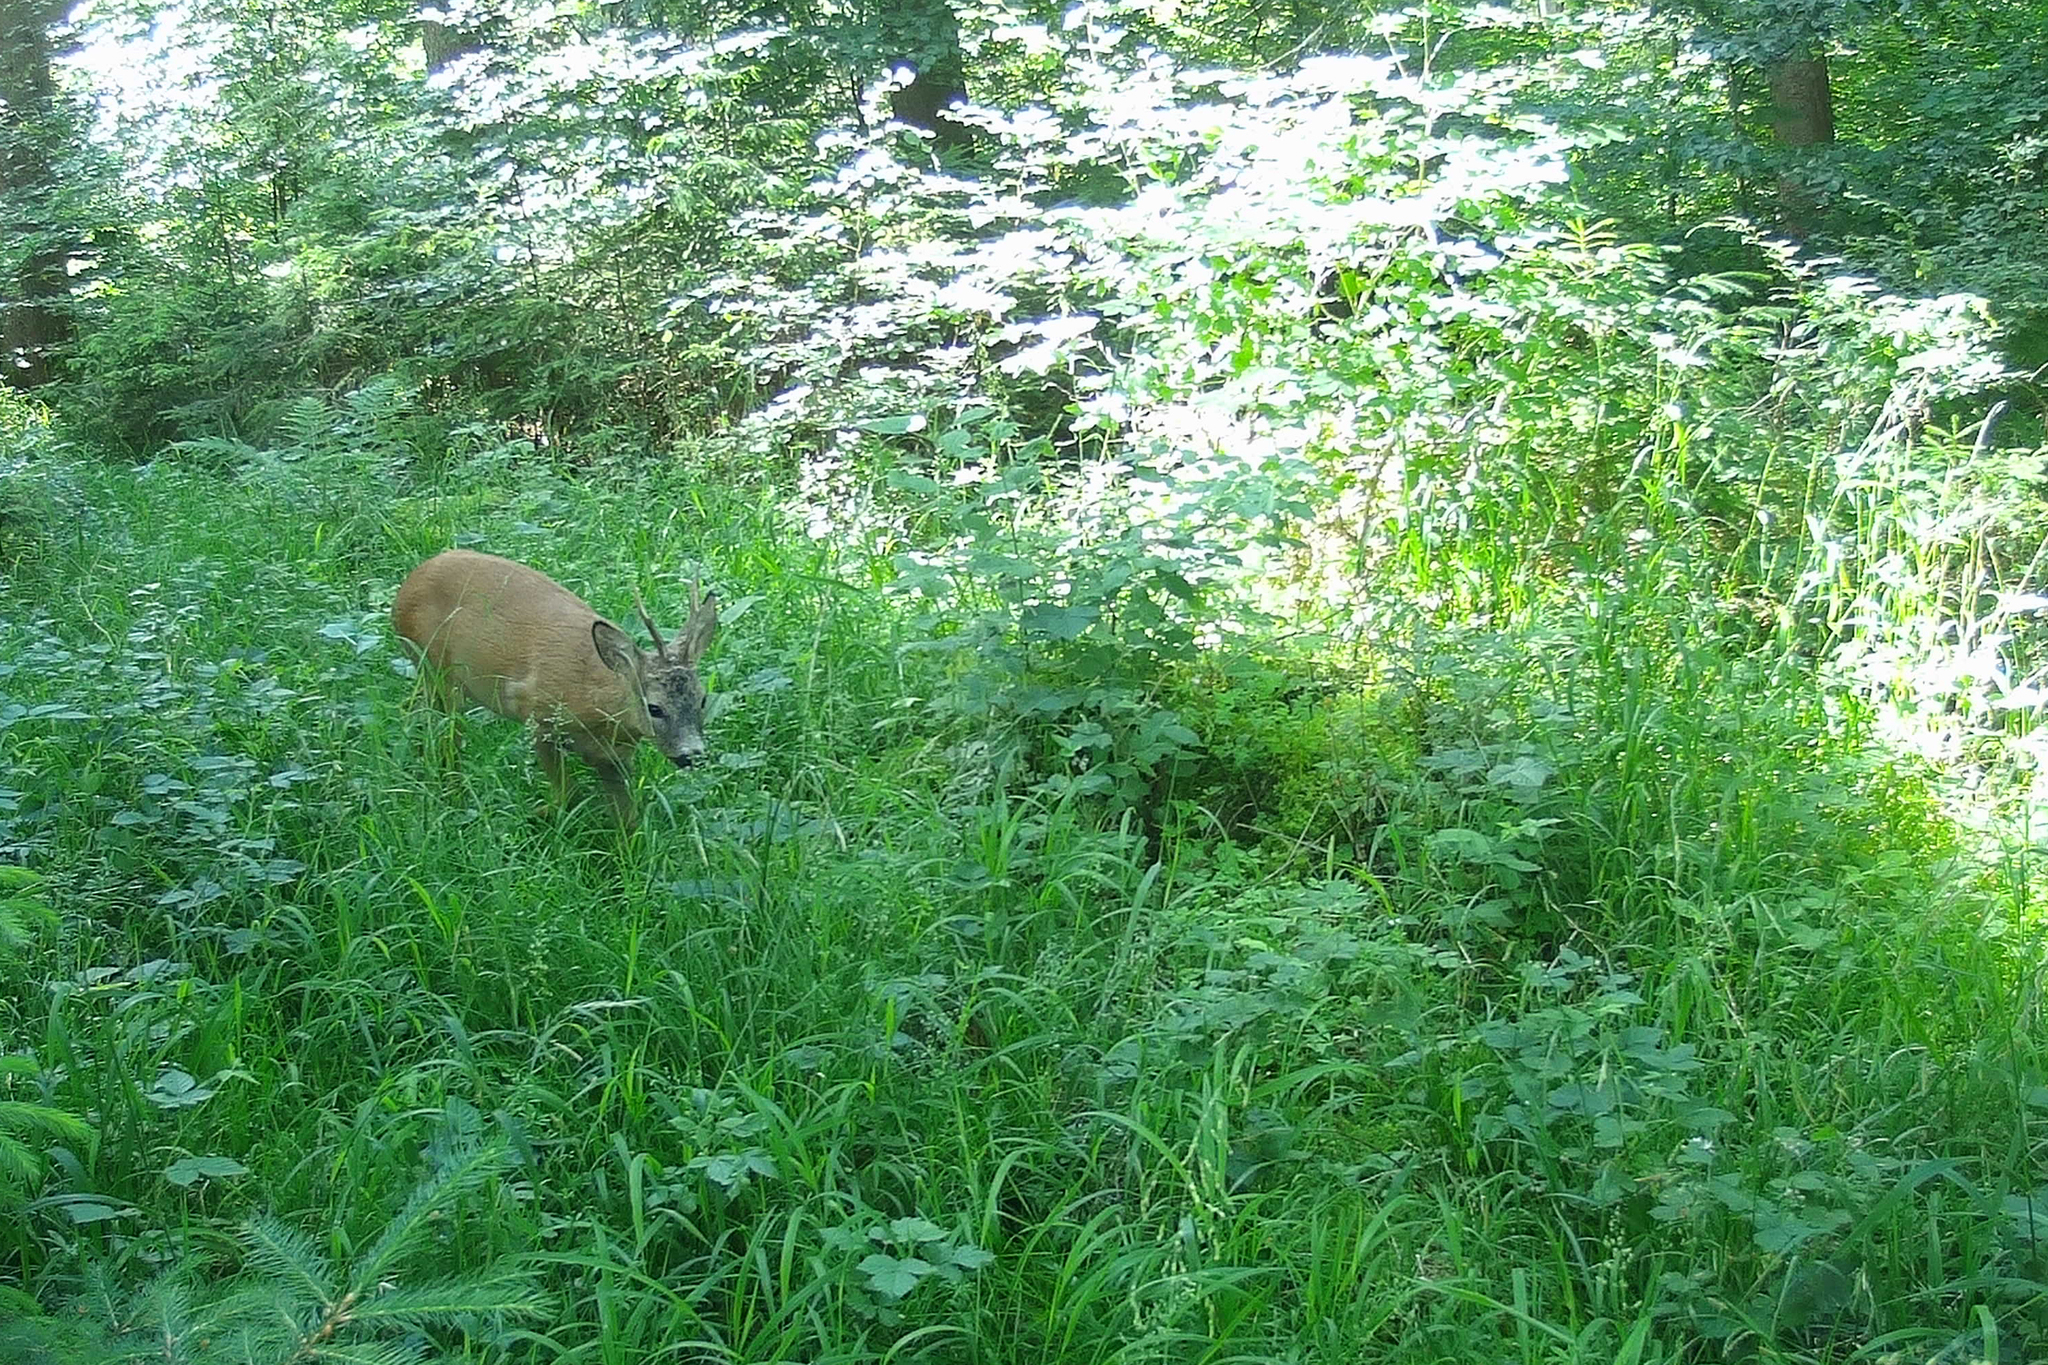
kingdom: Animalia
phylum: Chordata
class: Mammalia
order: Artiodactyla
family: Cervidae
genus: Capreolus
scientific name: Capreolus capreolus
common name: Western roe deer
